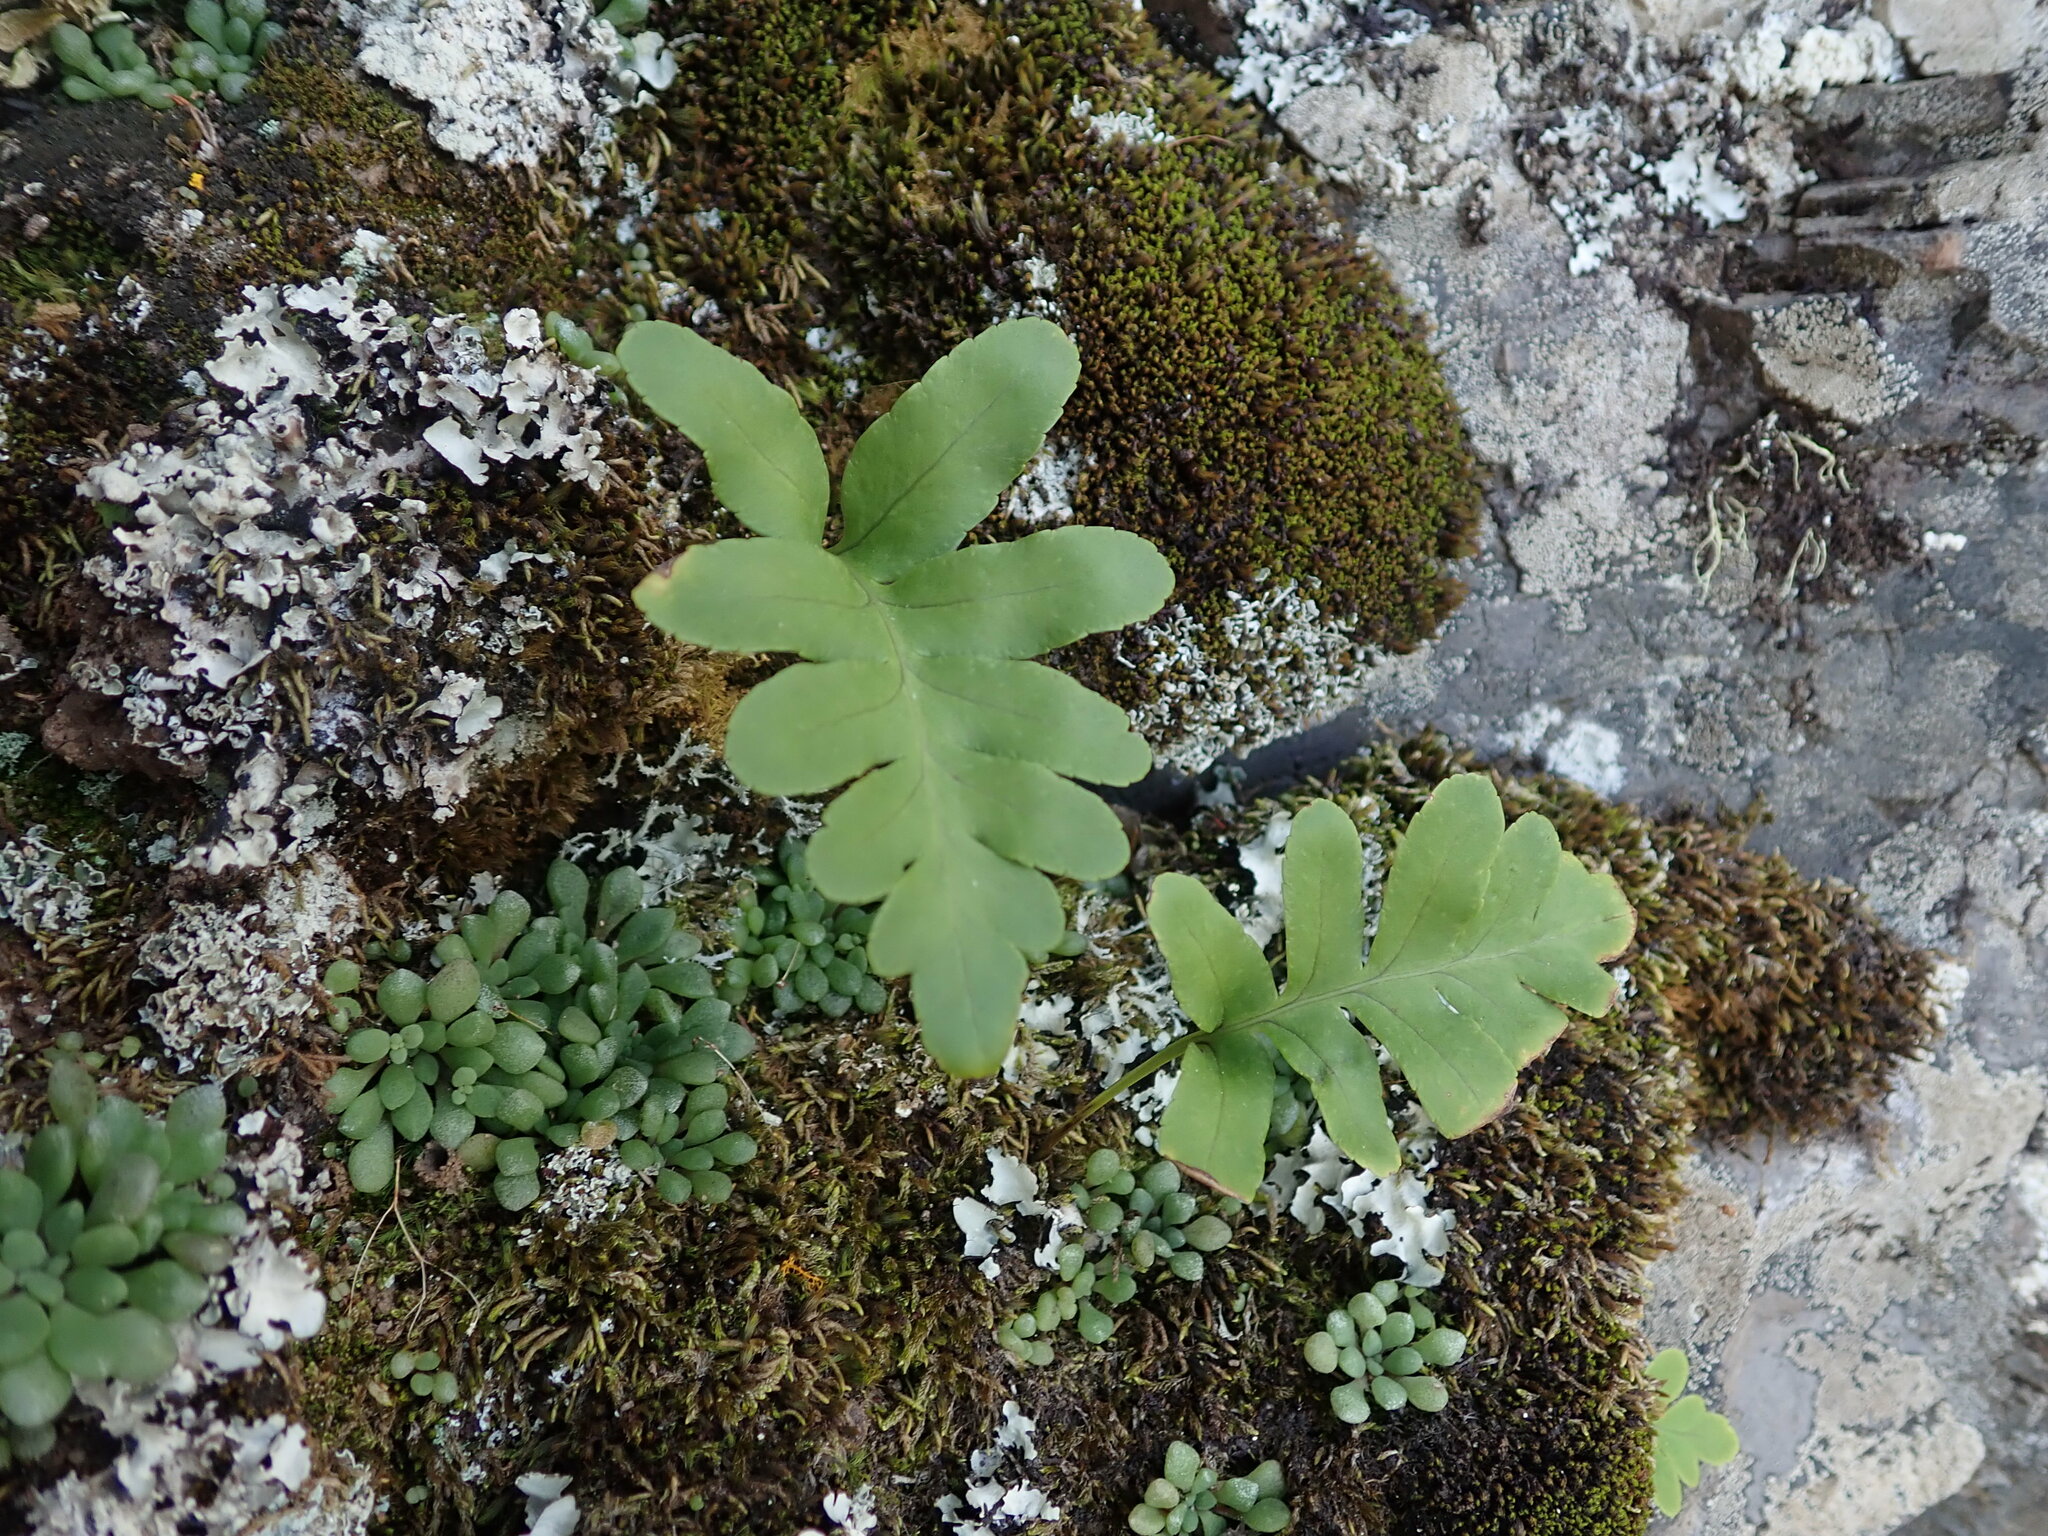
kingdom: Plantae
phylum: Tracheophyta
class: Polypodiopsida
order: Polypodiales
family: Polypodiaceae
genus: Polypodium
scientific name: Polypodium macaronesicum
